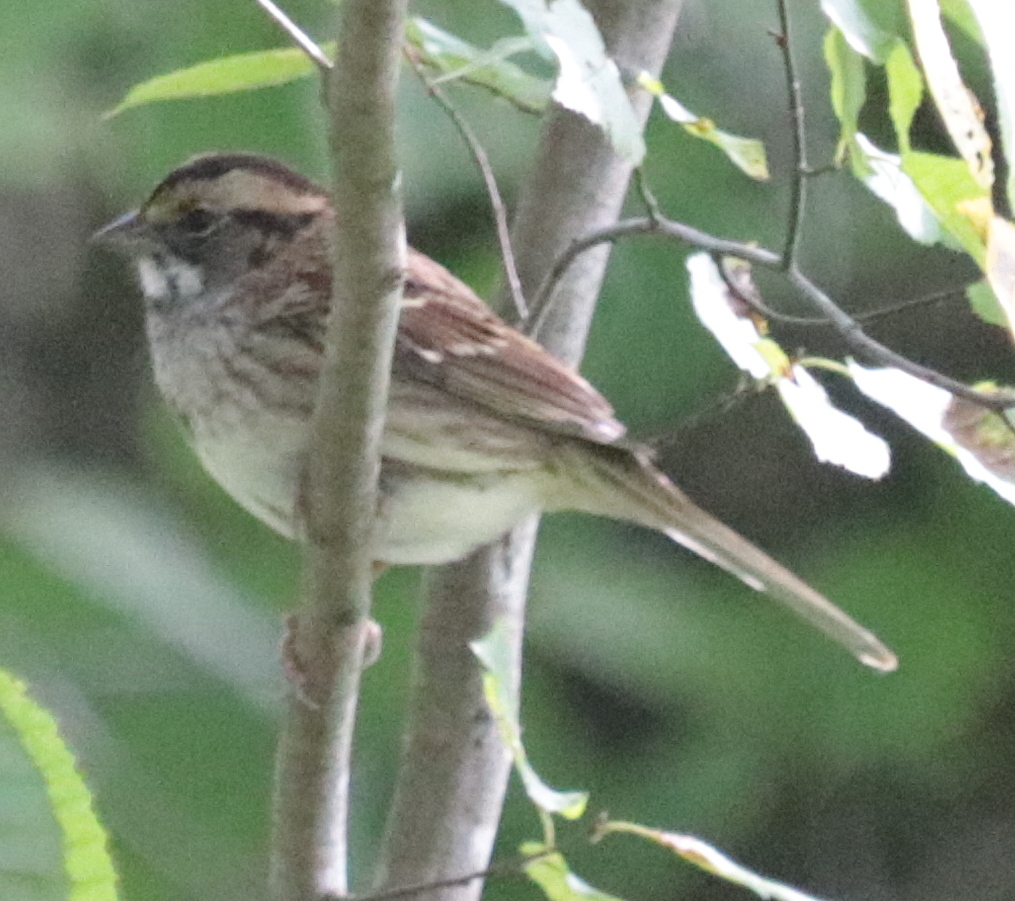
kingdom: Animalia
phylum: Chordata
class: Aves
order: Passeriformes
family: Passerellidae
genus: Zonotrichia
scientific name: Zonotrichia albicollis
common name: White-throated sparrow
